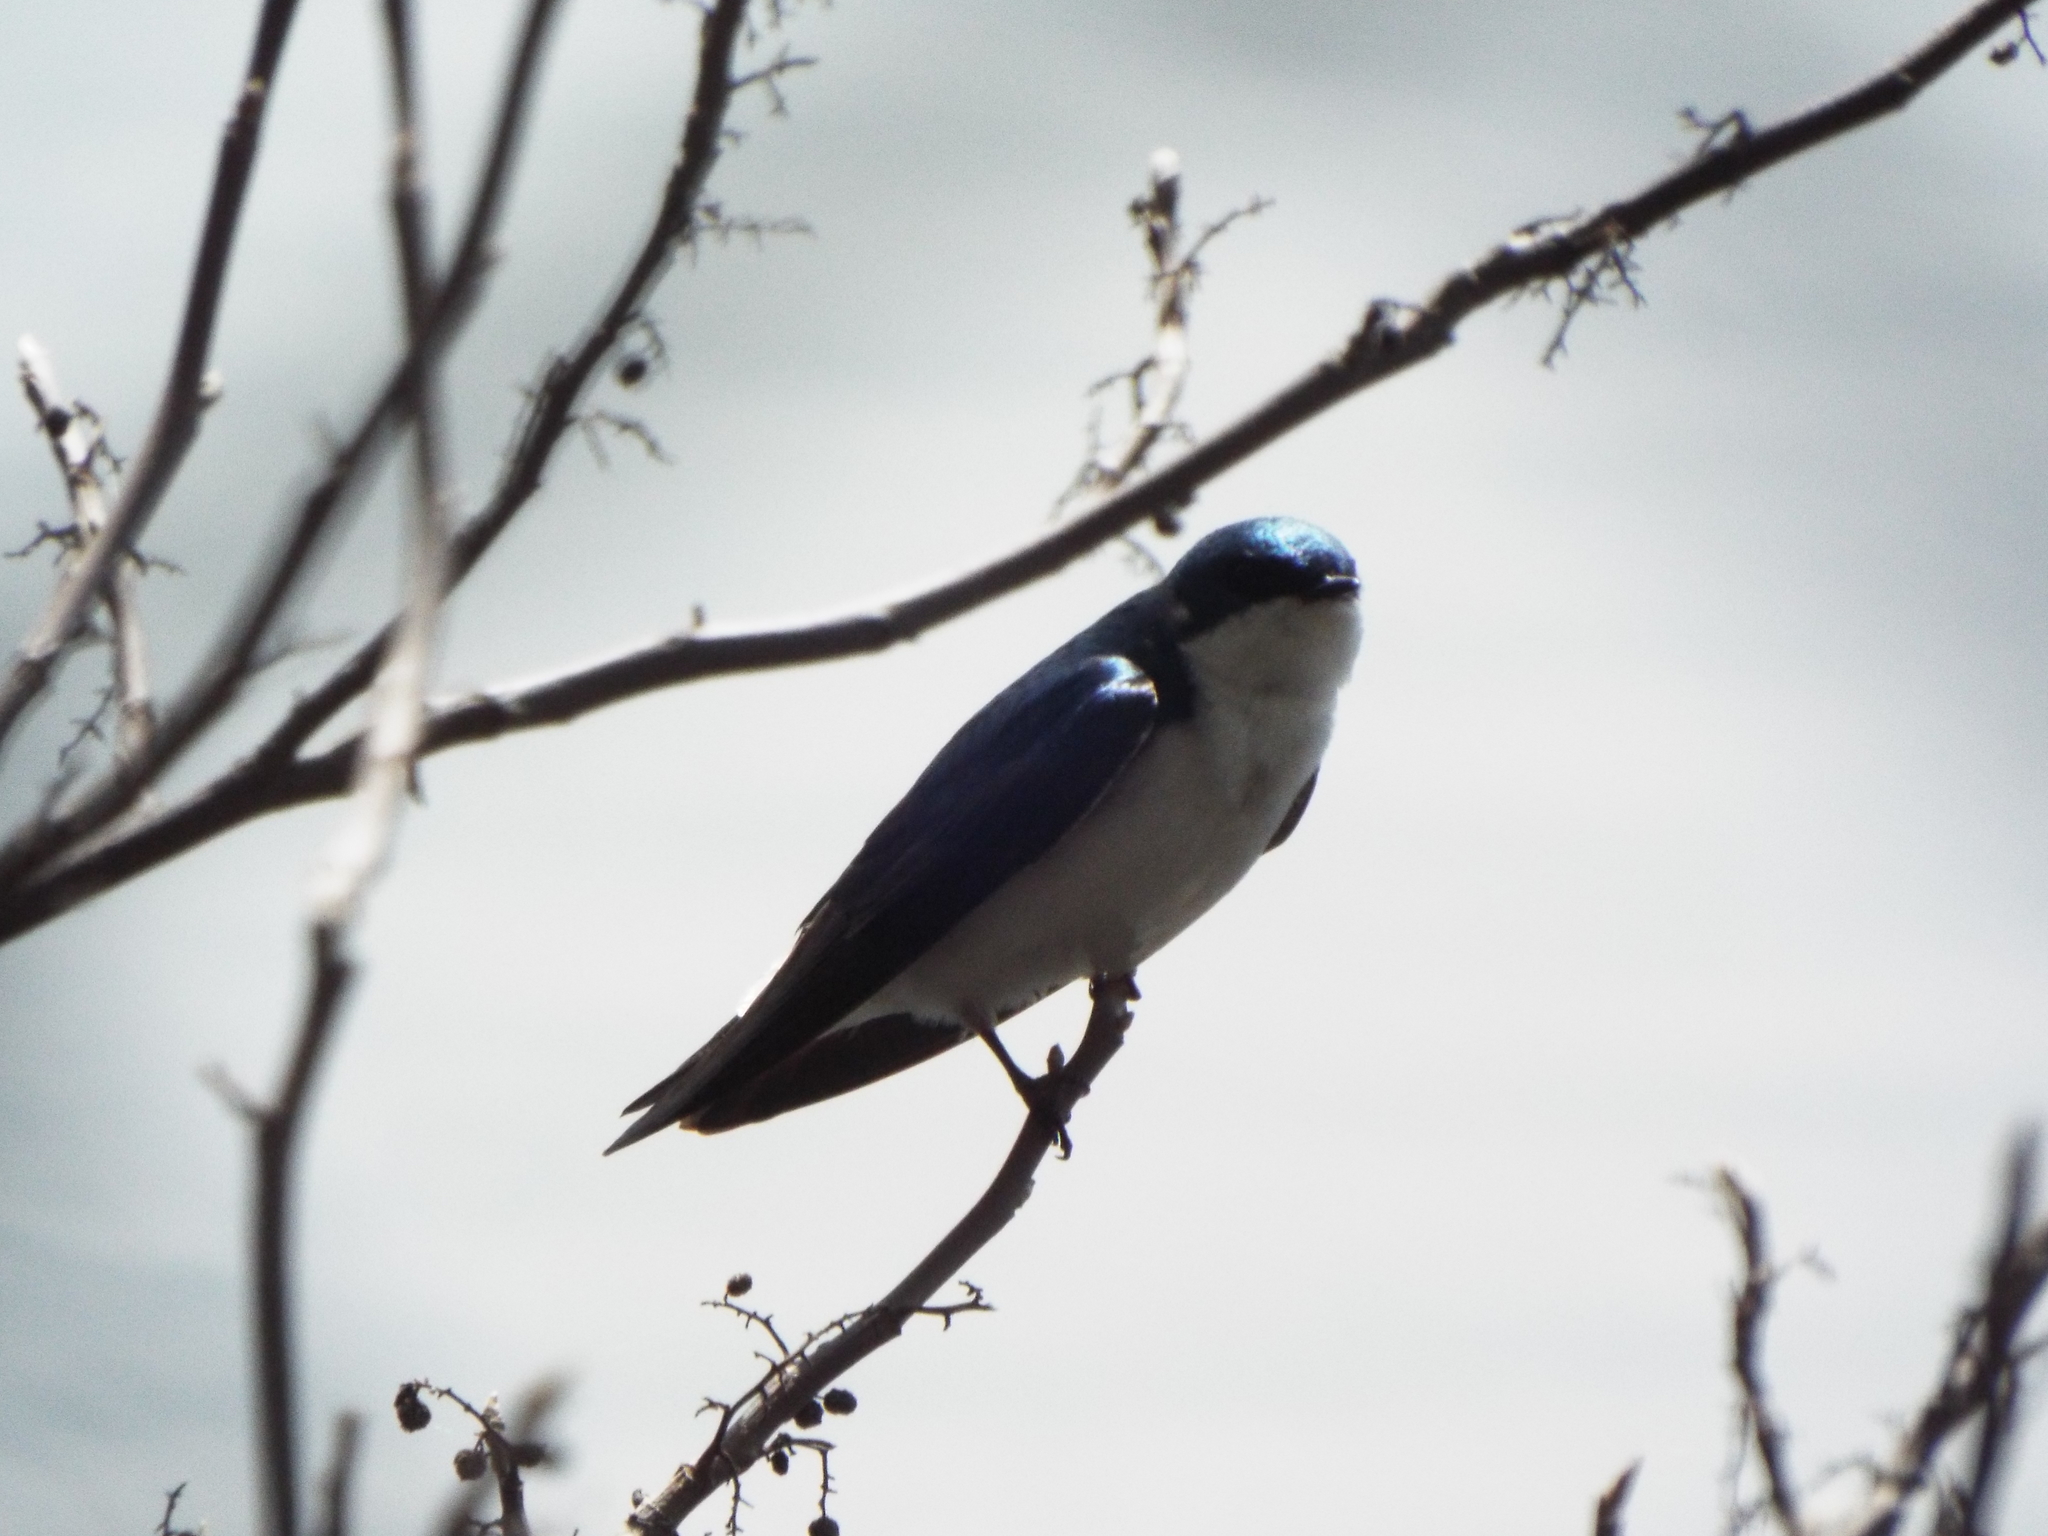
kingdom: Animalia
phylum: Chordata
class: Aves
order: Passeriformes
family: Hirundinidae
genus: Tachycineta
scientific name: Tachycineta bicolor
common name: Tree swallow
